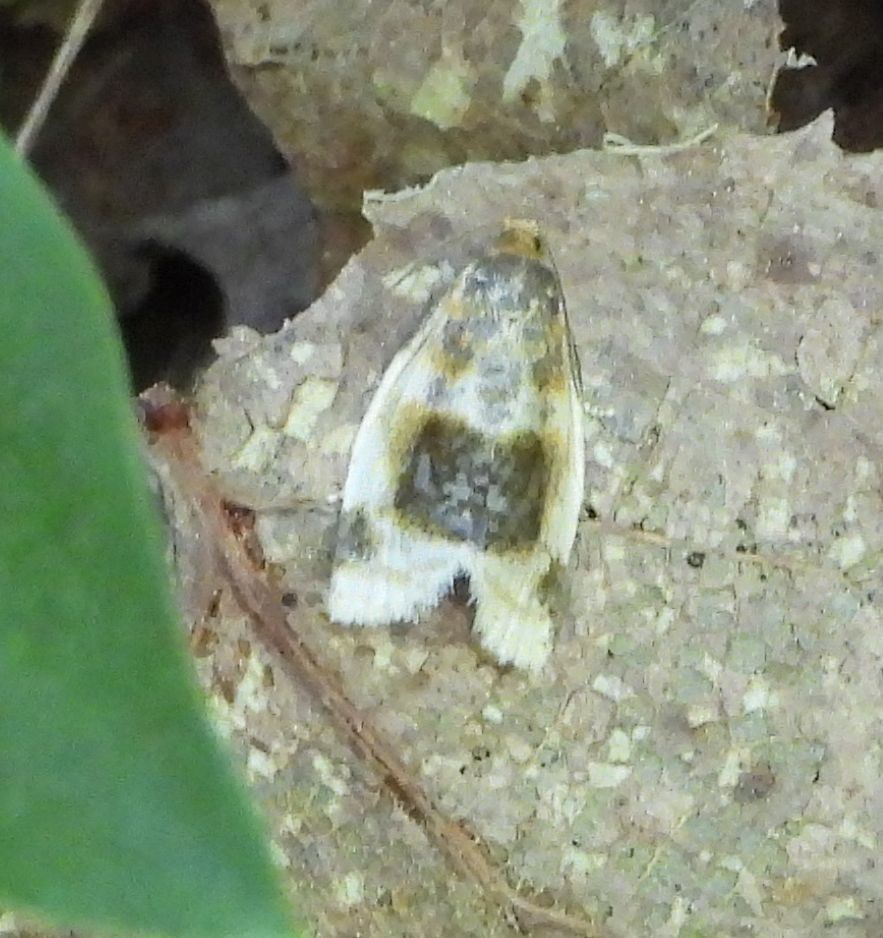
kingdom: Animalia
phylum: Arthropoda
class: Insecta
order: Lepidoptera
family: Tortricidae
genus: Clepsis
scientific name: Clepsis melaleucanus
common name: American apple tortrix
